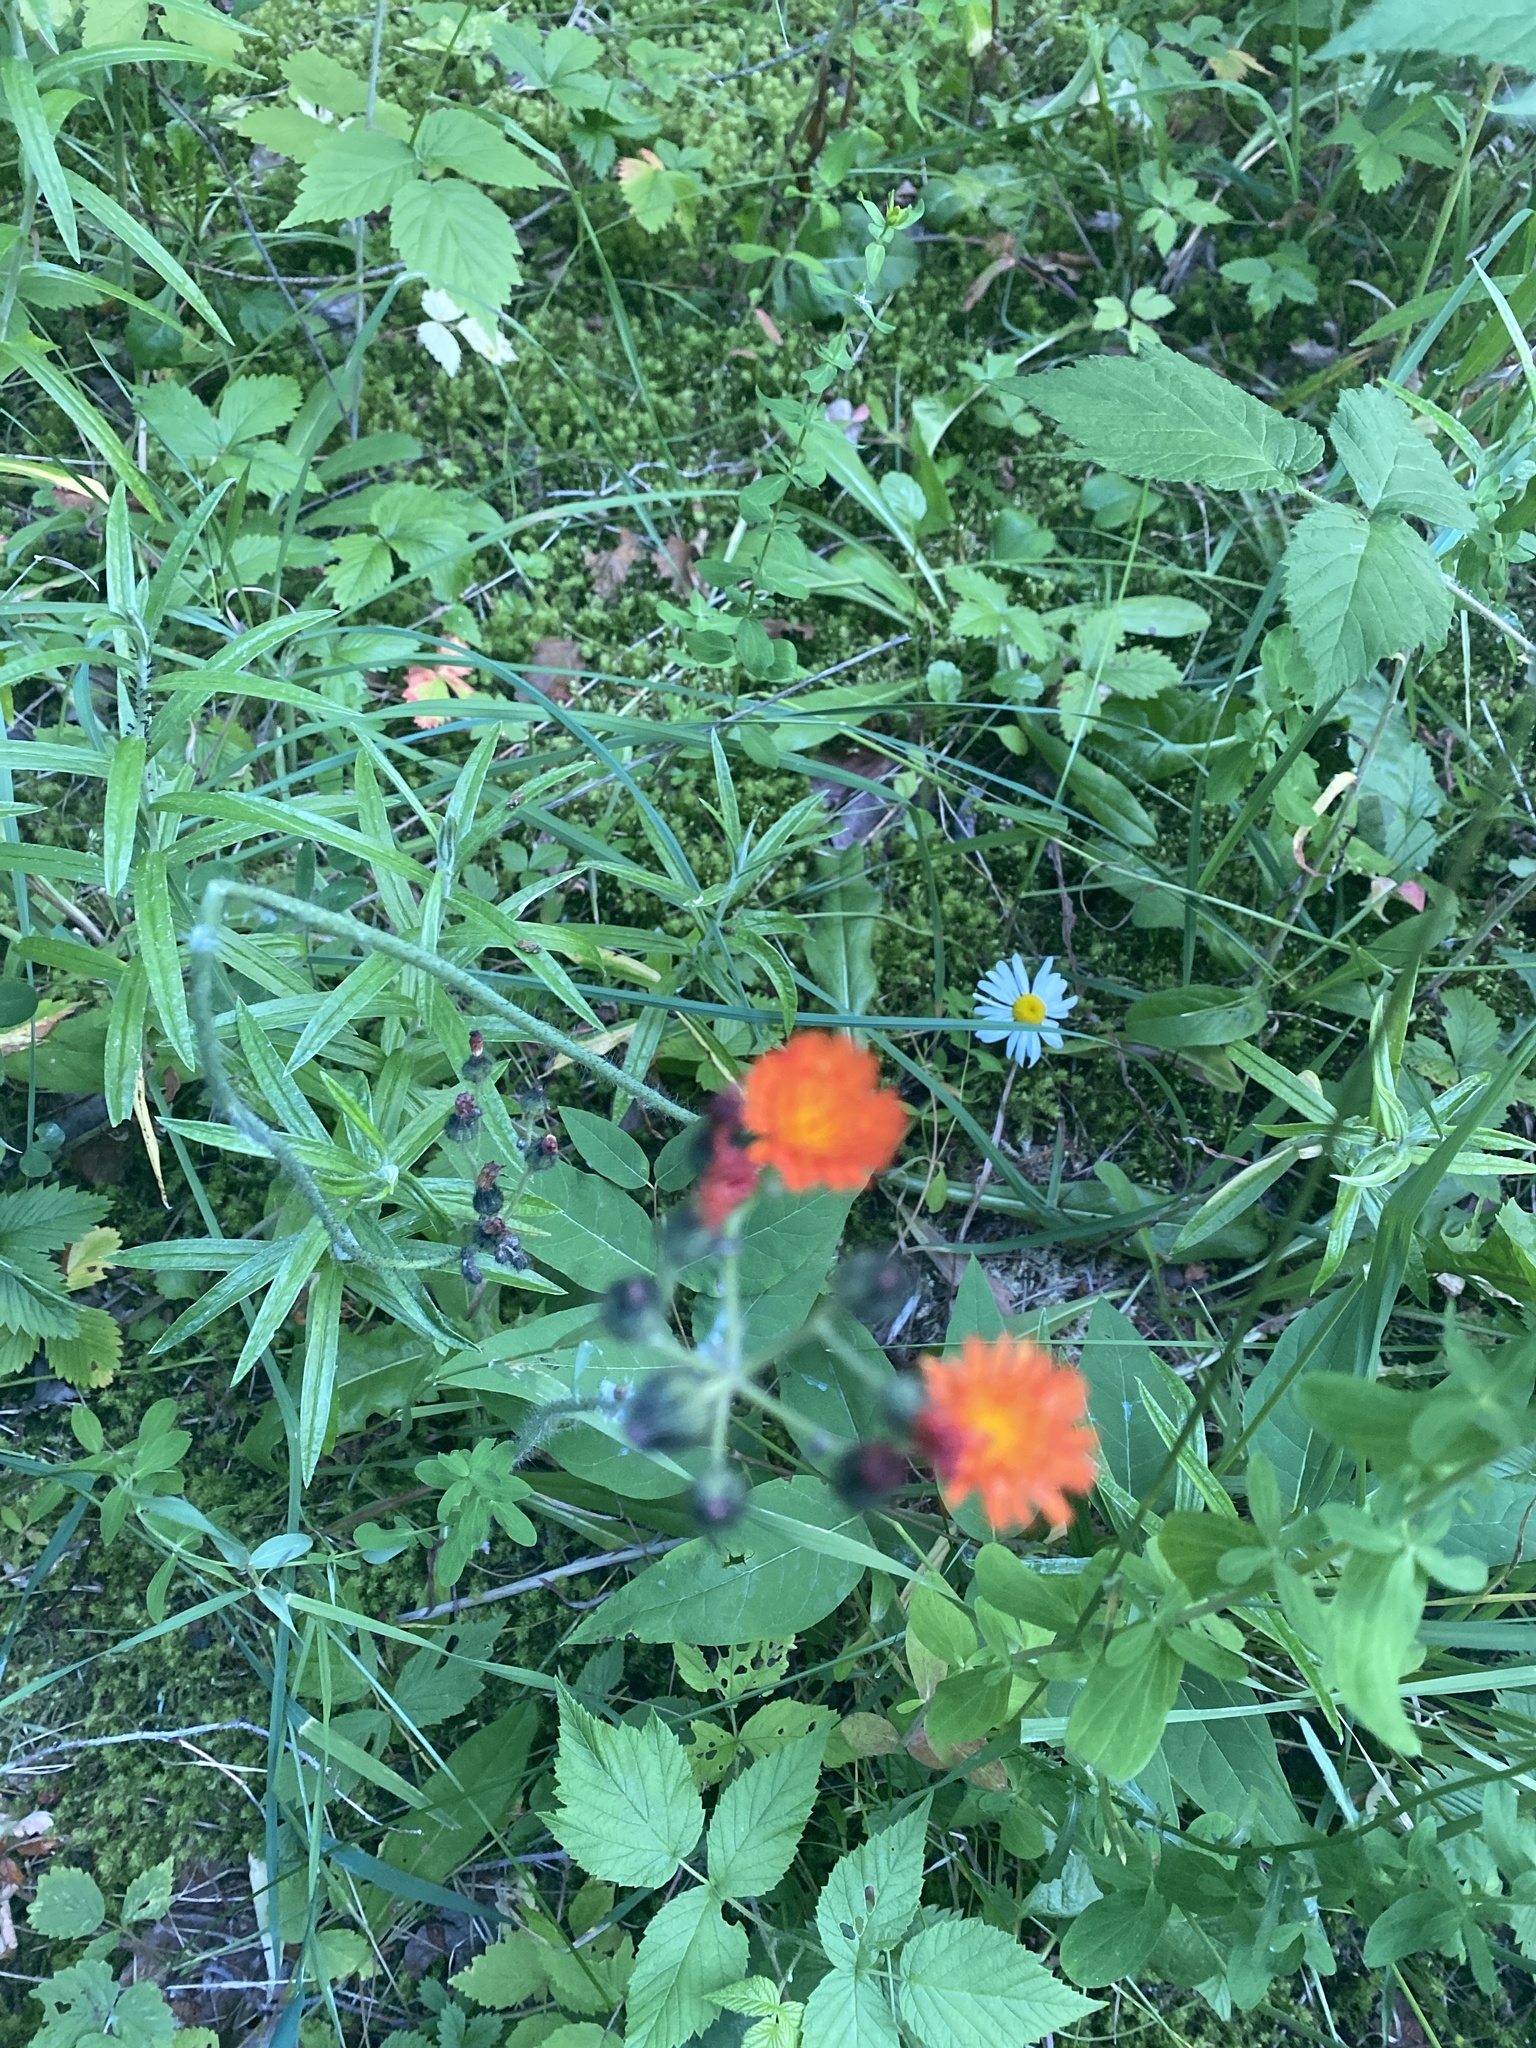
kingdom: Plantae
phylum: Tracheophyta
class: Magnoliopsida
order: Asterales
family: Asteraceae
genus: Pilosella
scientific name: Pilosella aurantiaca
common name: Fox-and-cubs
